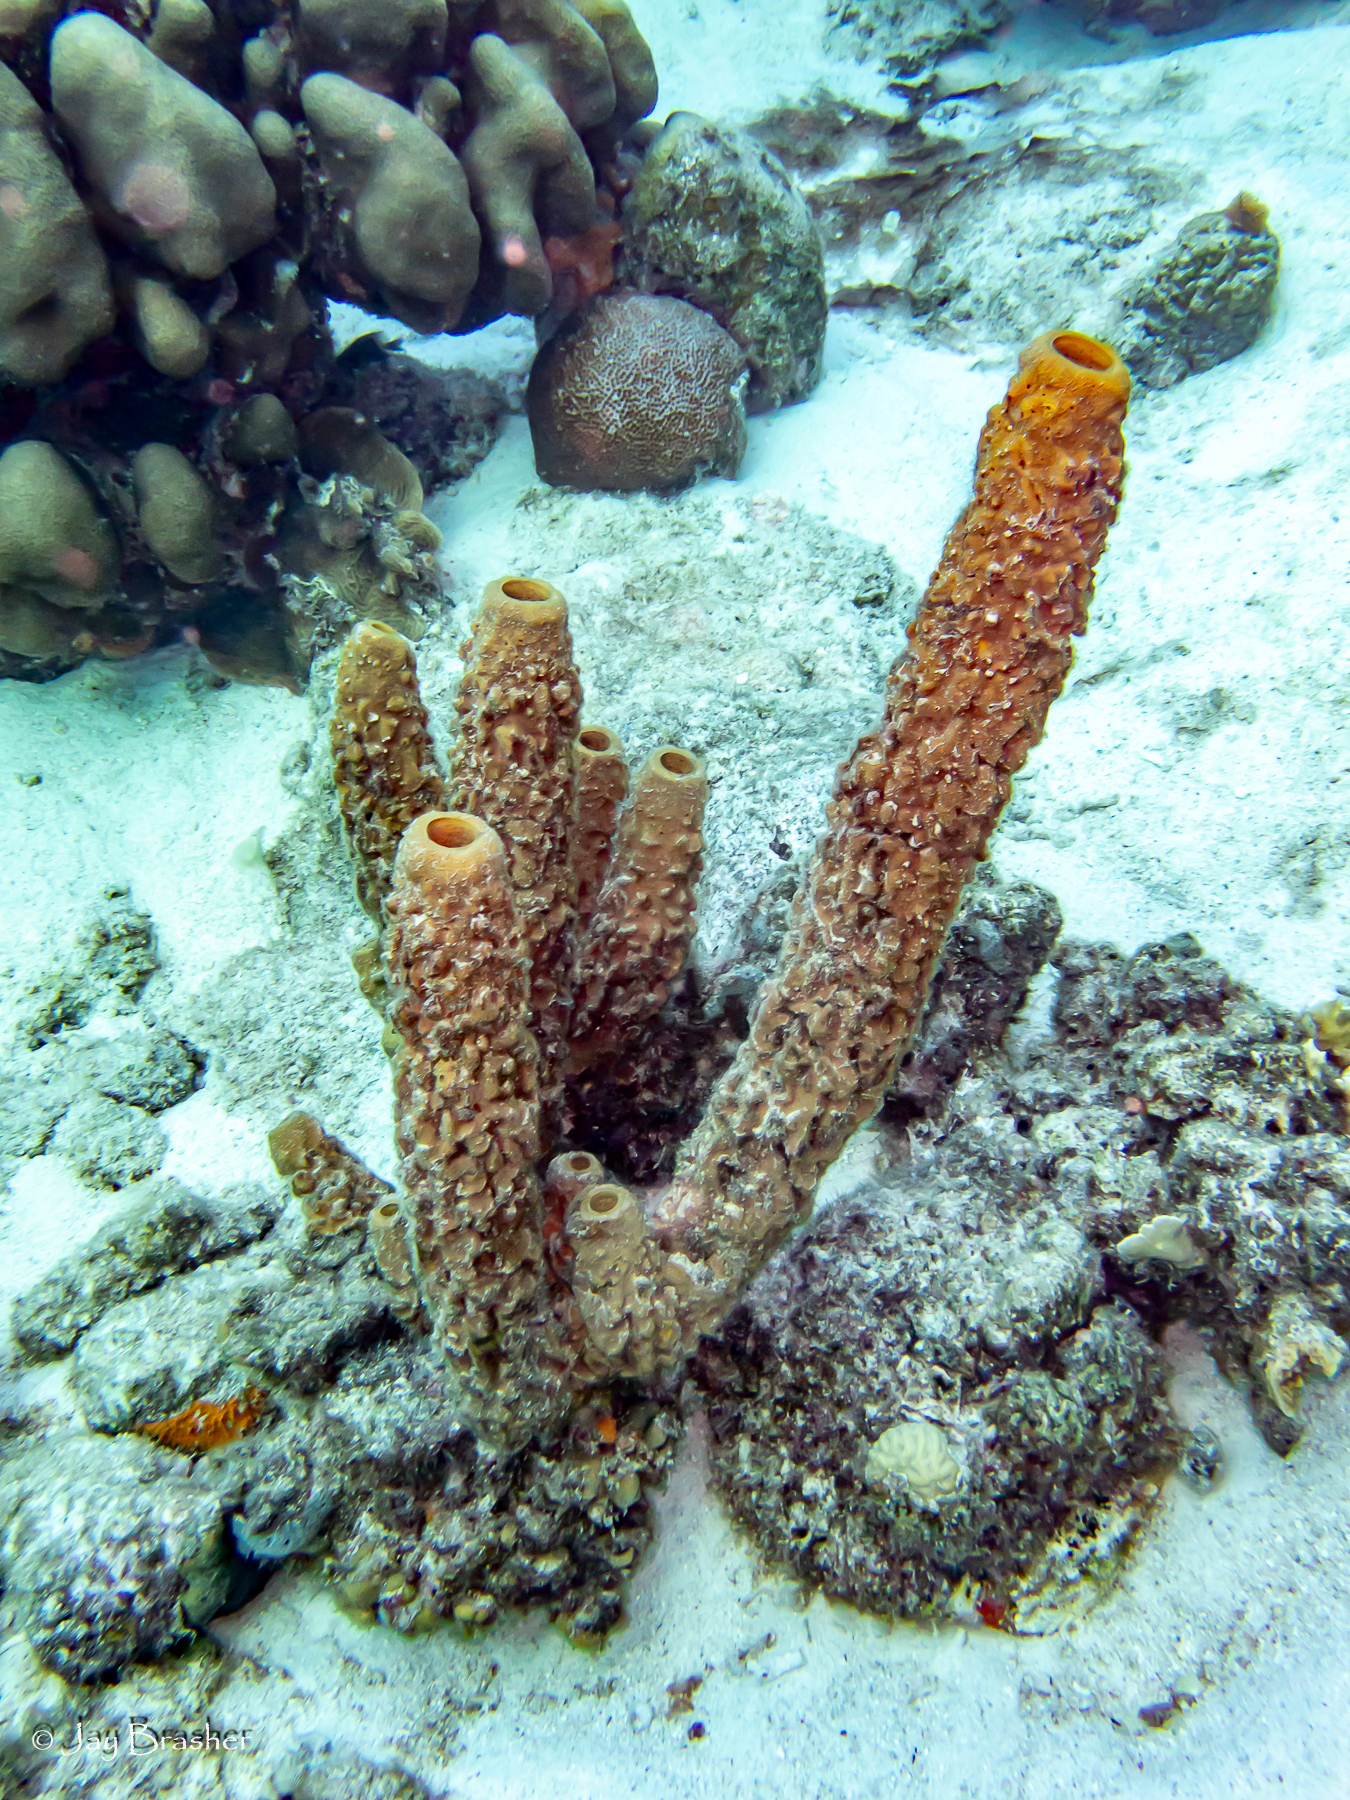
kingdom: Animalia
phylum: Porifera
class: Demospongiae
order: Verongiida
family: Aplysinidae
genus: Aplysina
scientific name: Aplysina archeri
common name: Stove-pipe sponge
